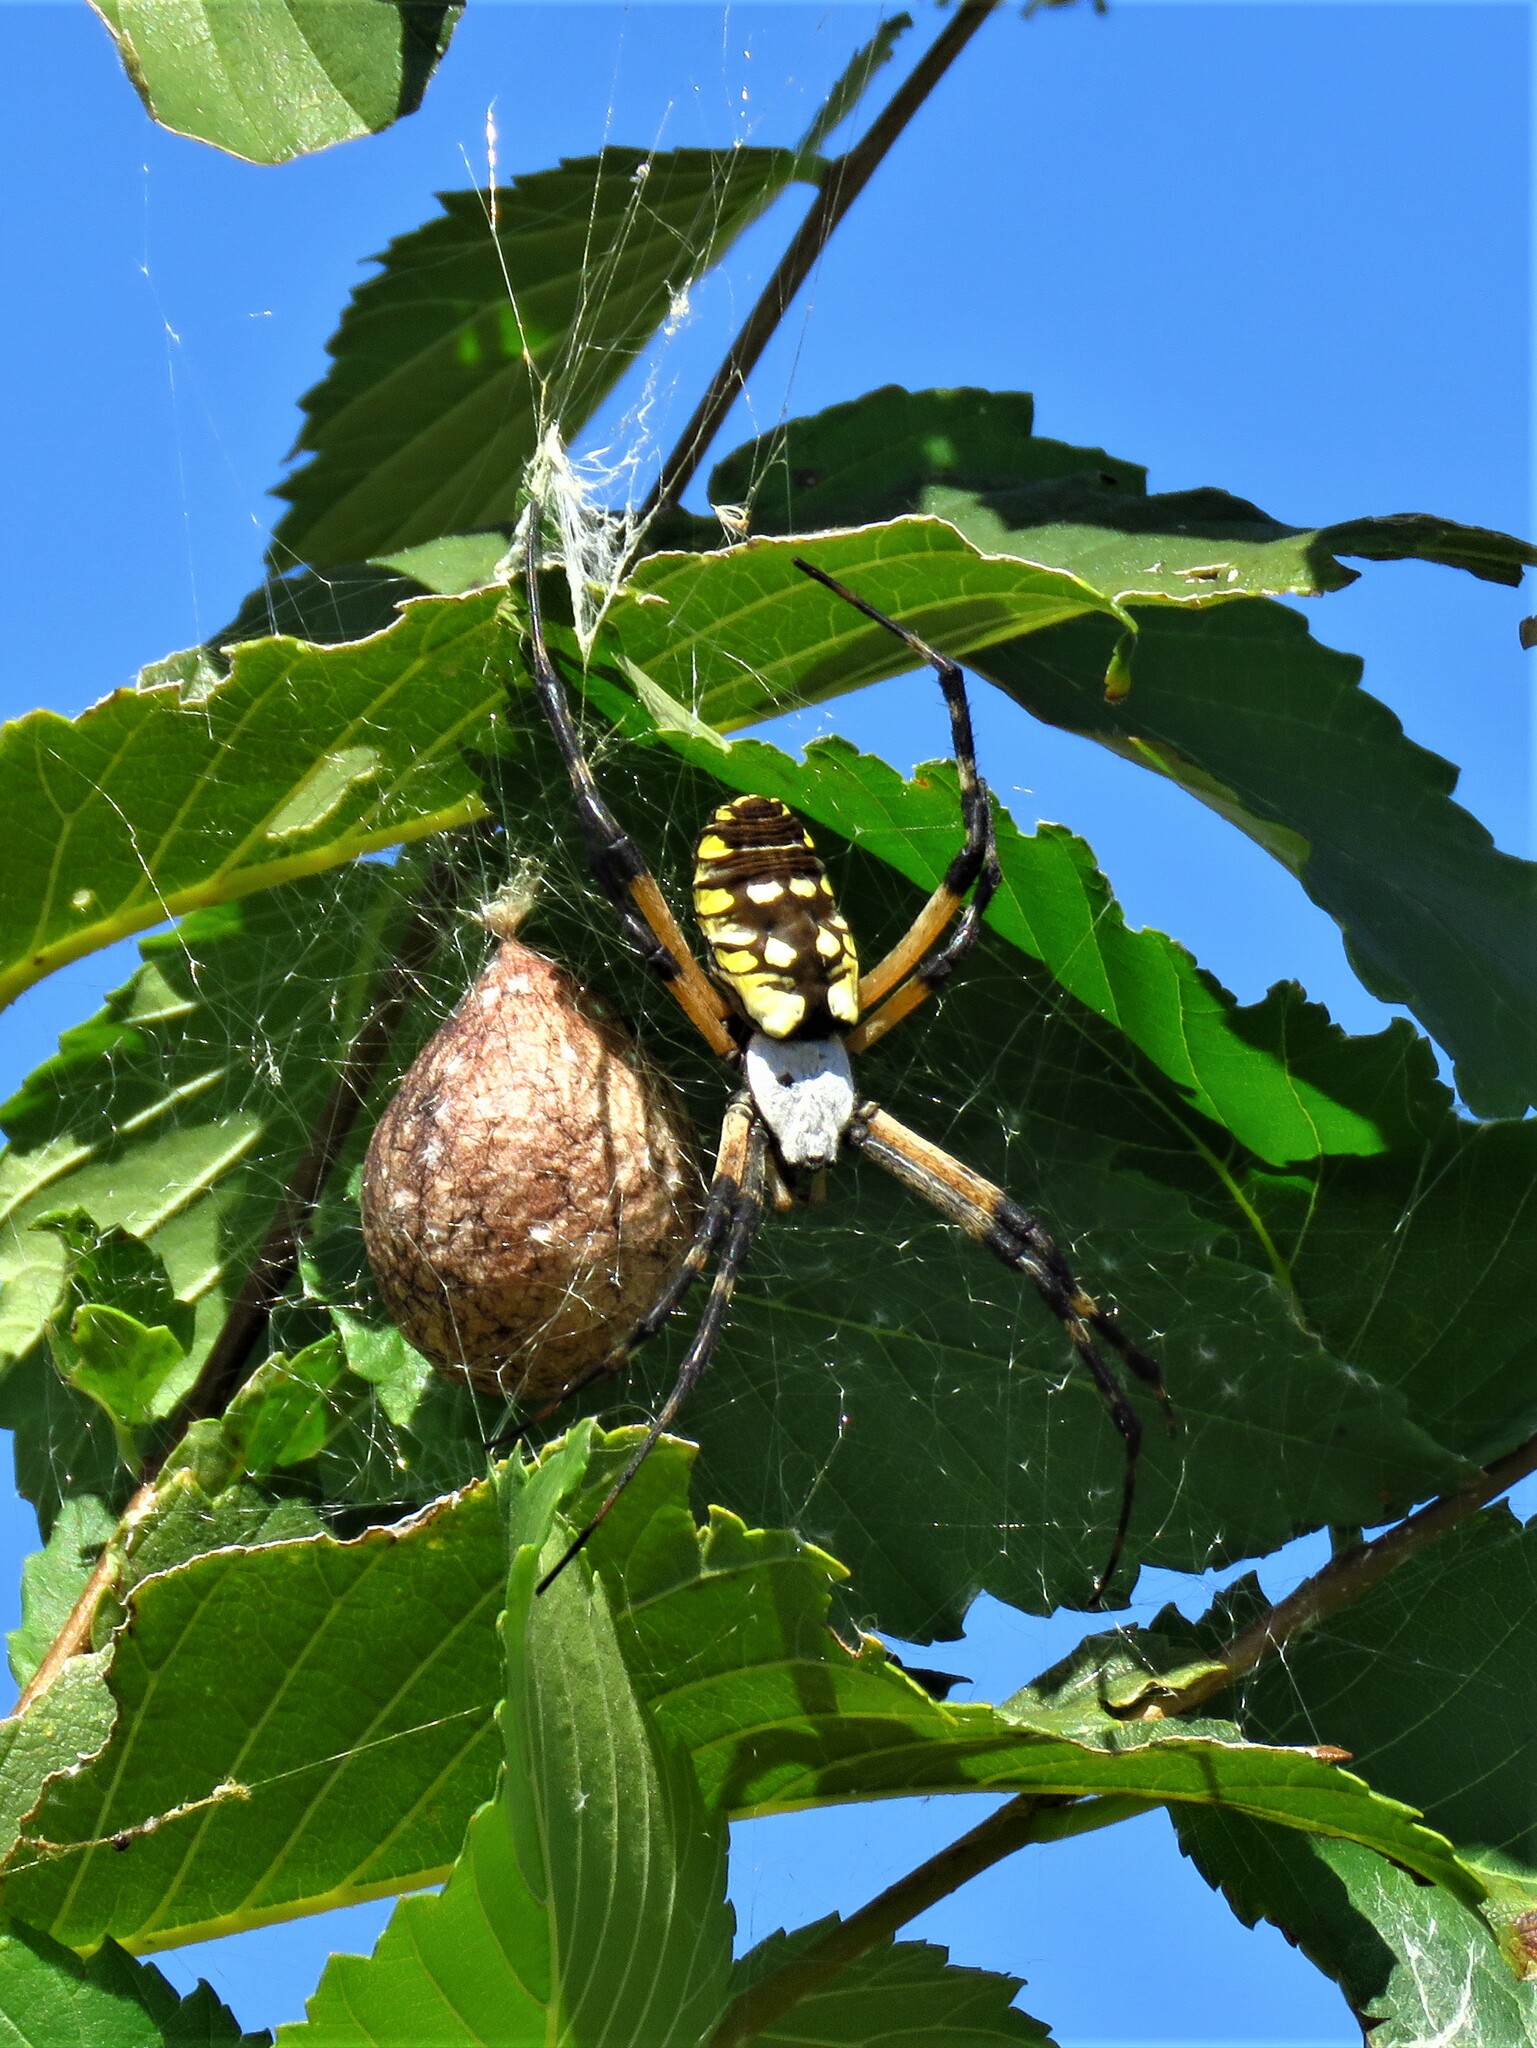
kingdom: Animalia
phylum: Arthropoda
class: Arachnida
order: Araneae
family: Araneidae
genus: Argiope
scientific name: Argiope aurantia
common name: Orb weavers
